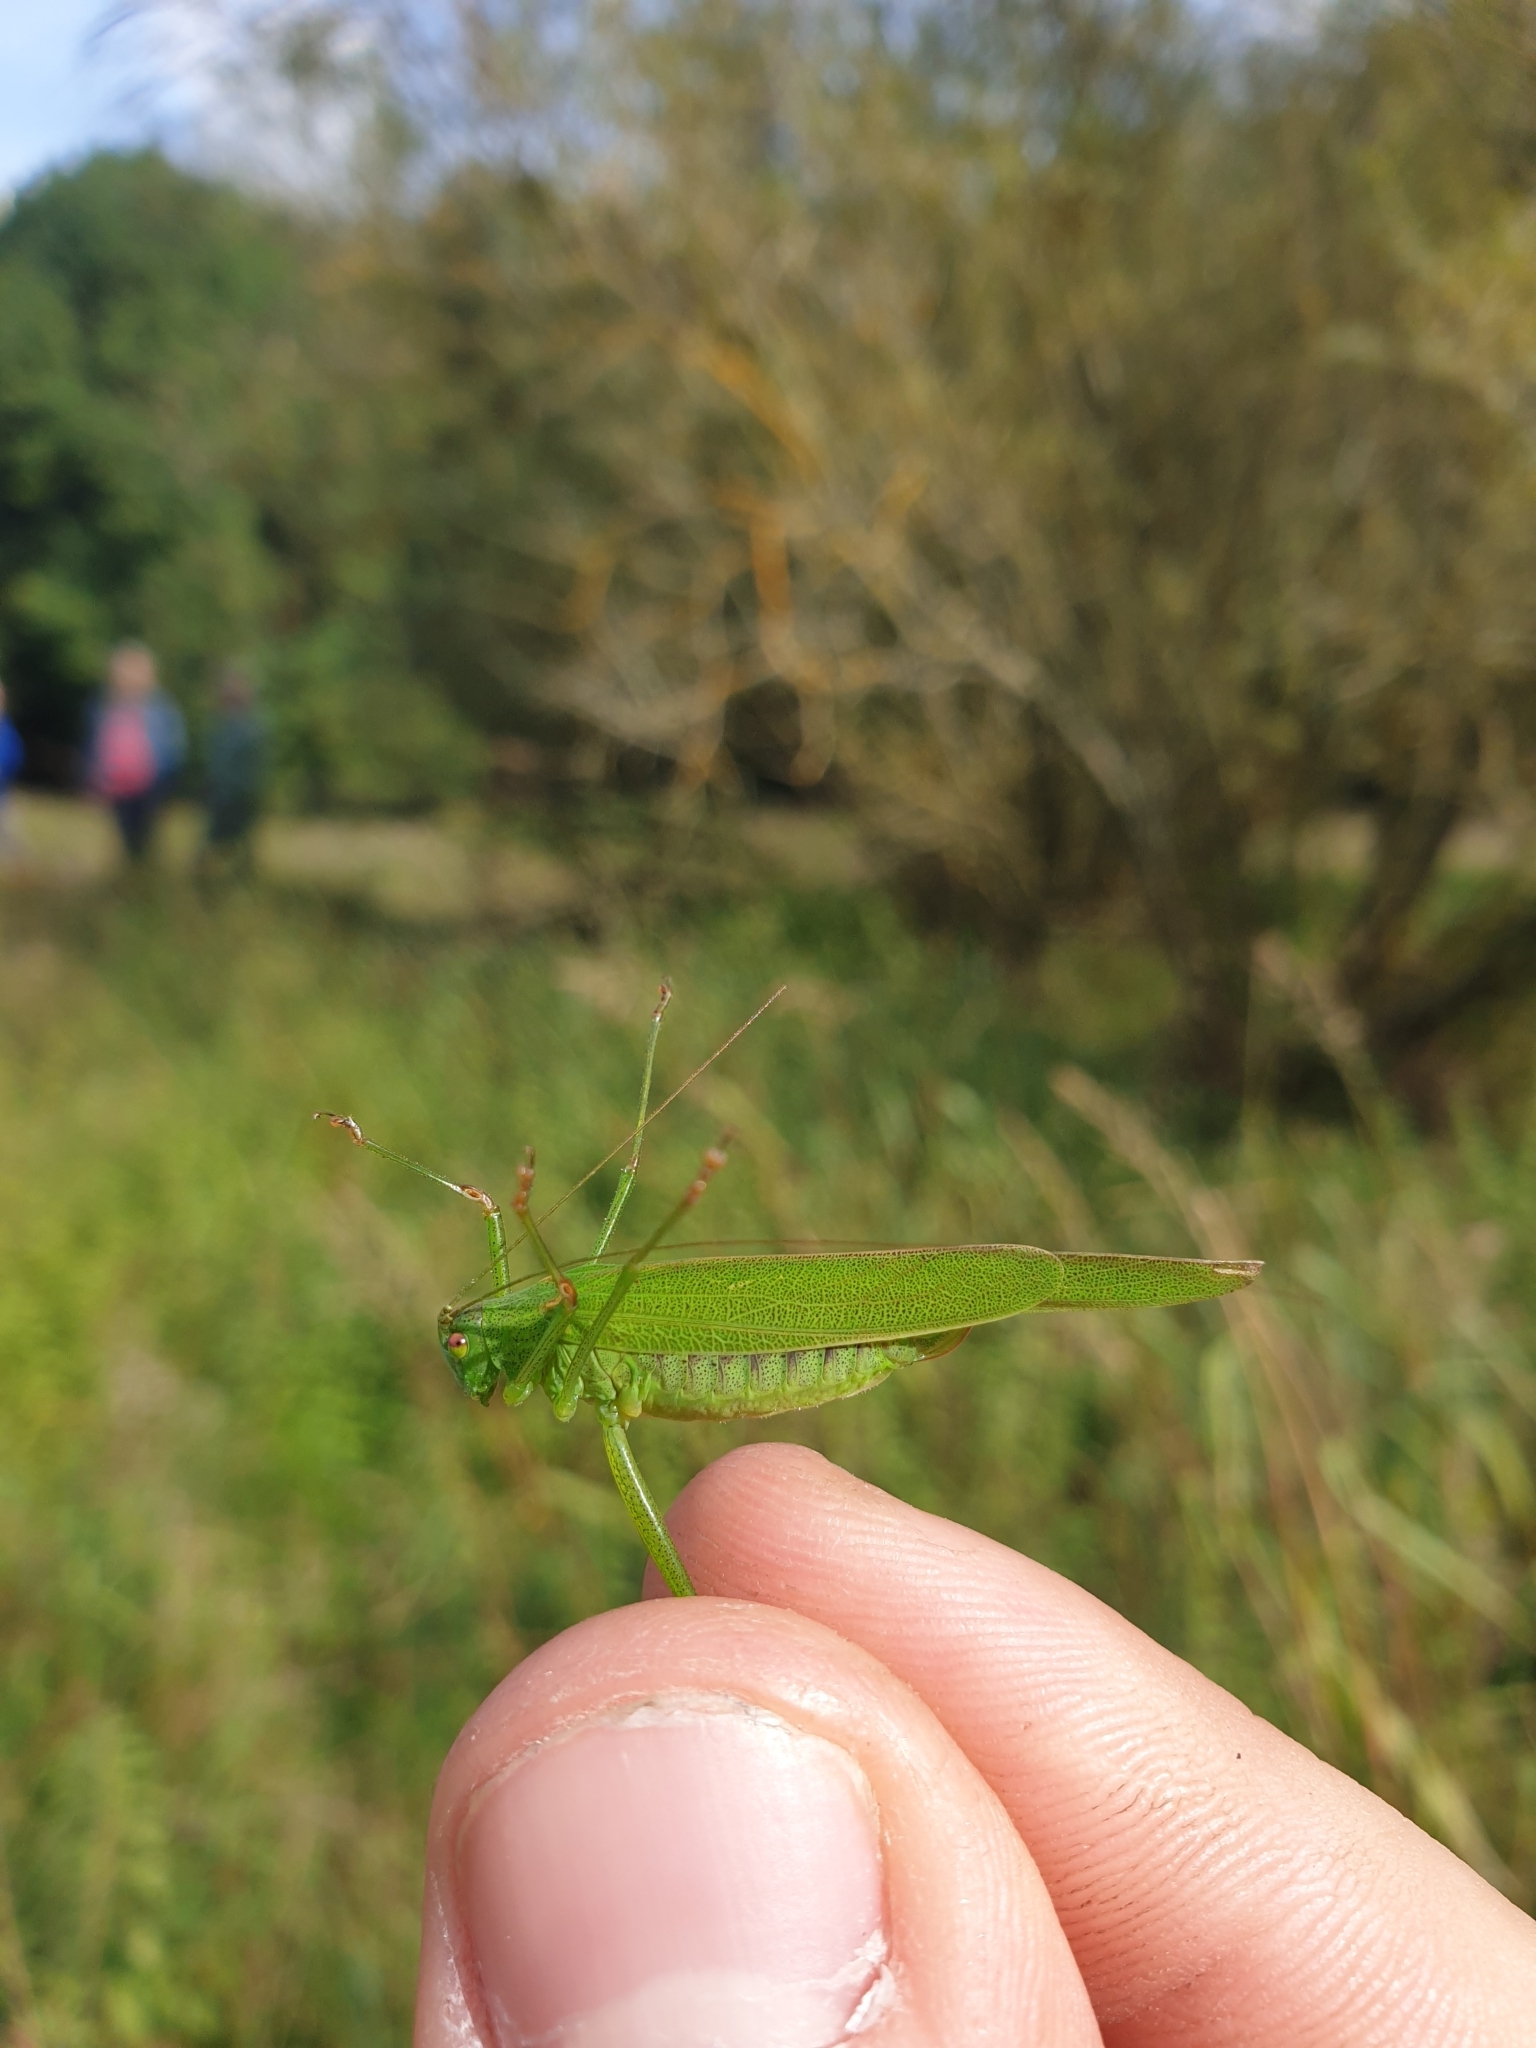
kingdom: Animalia
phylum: Arthropoda
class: Insecta
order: Orthoptera
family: Tettigoniidae
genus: Phaneroptera
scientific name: Phaneroptera falcata
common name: Sickle-bearing bush-cricket
